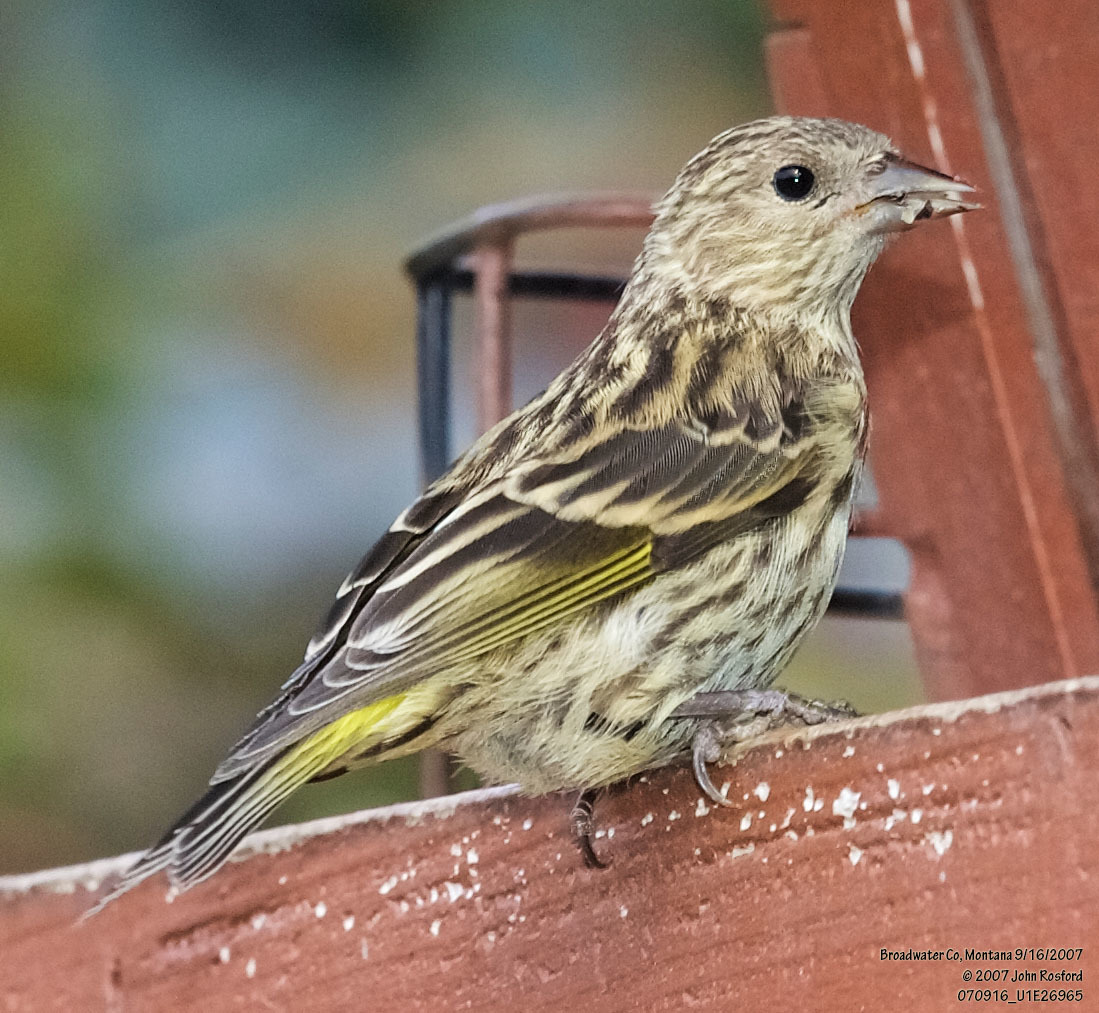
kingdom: Animalia
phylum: Chordata
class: Aves
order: Passeriformes
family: Fringillidae
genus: Spinus
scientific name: Spinus pinus
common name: Pine siskin
